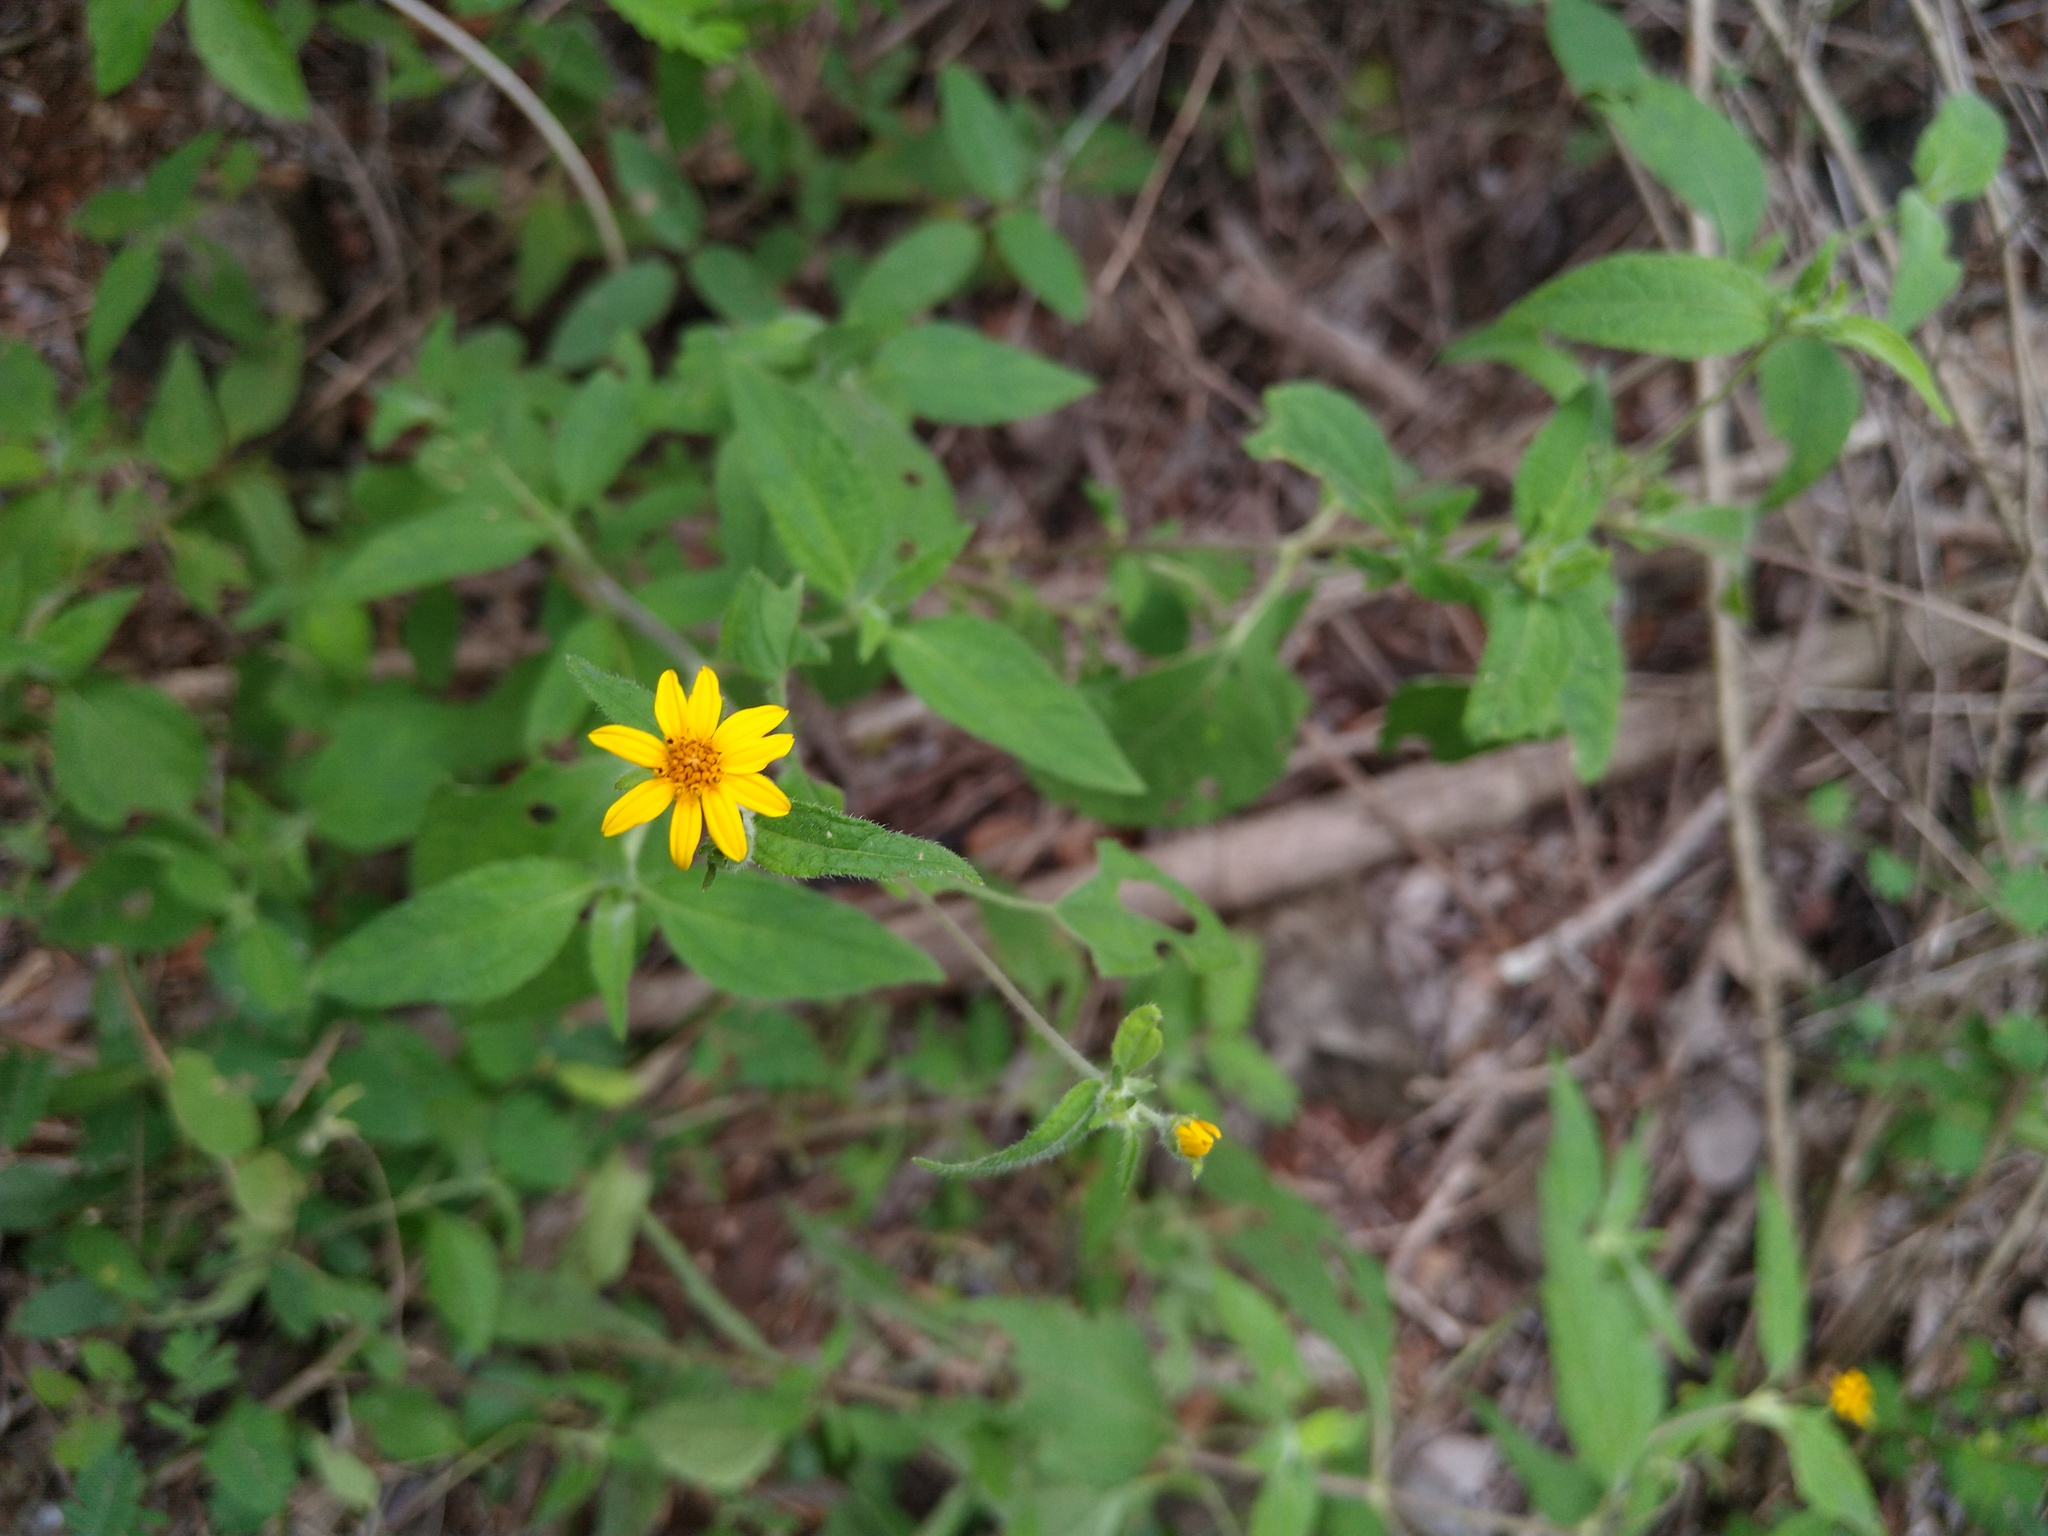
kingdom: Plantae
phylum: Tracheophyta
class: Magnoliopsida
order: Asterales
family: Asteraceae
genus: Wedelia
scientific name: Wedelia acapulcensis
